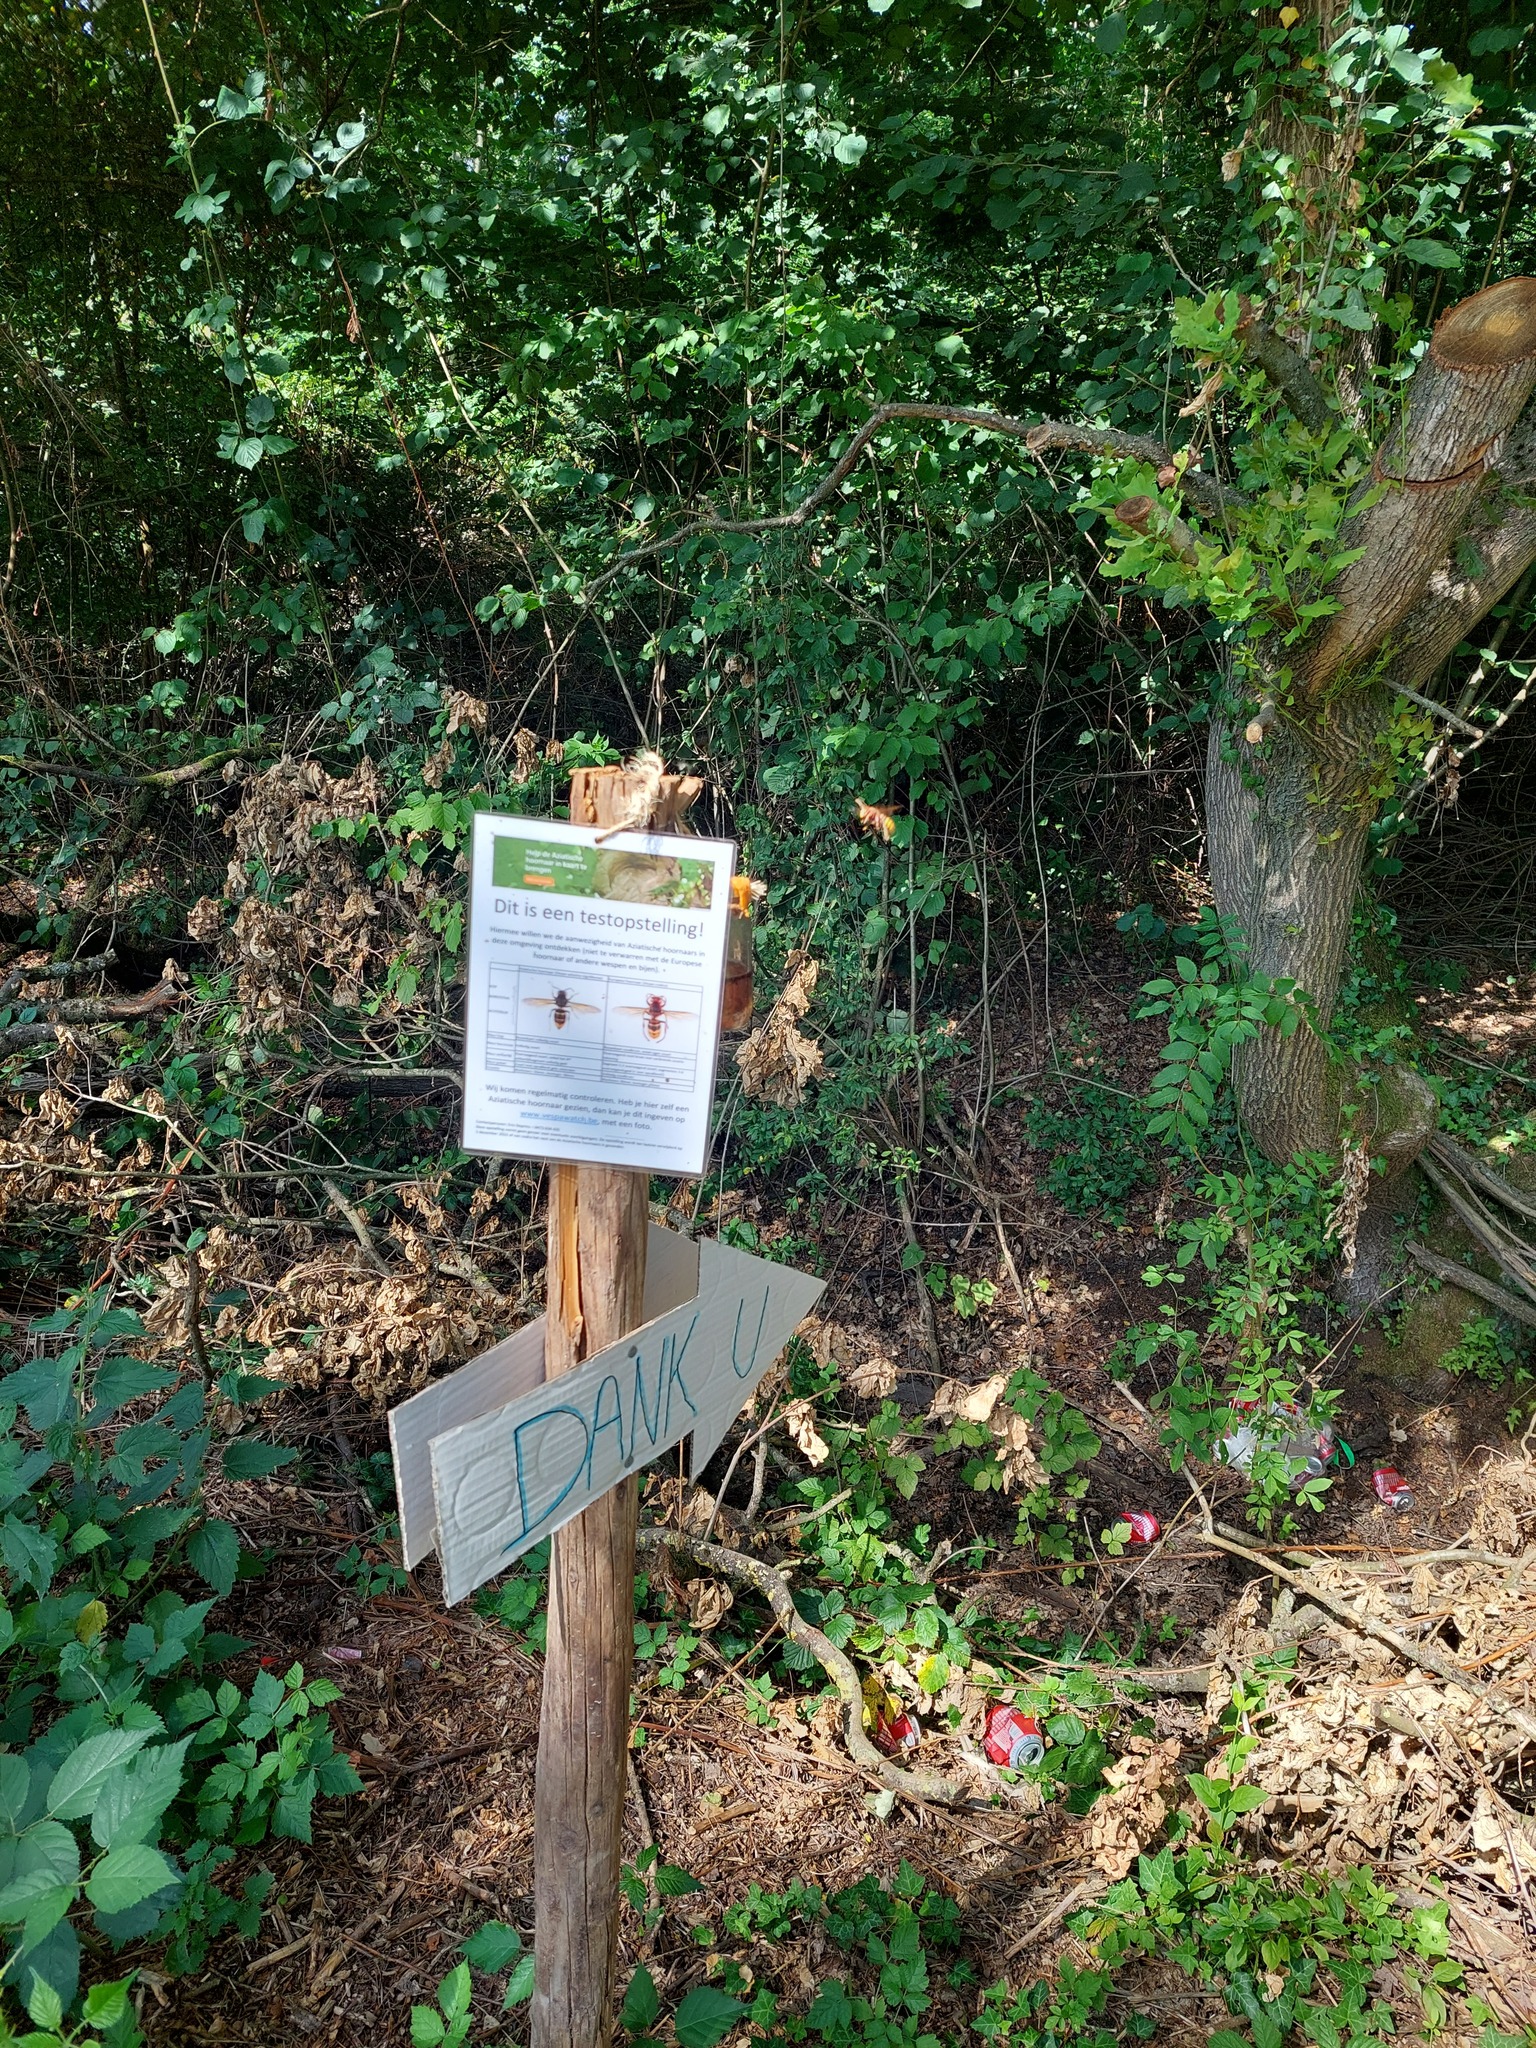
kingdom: Animalia
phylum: Arthropoda
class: Insecta
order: Hymenoptera
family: Vespidae
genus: Vespa
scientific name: Vespa crabro
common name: Hornet
